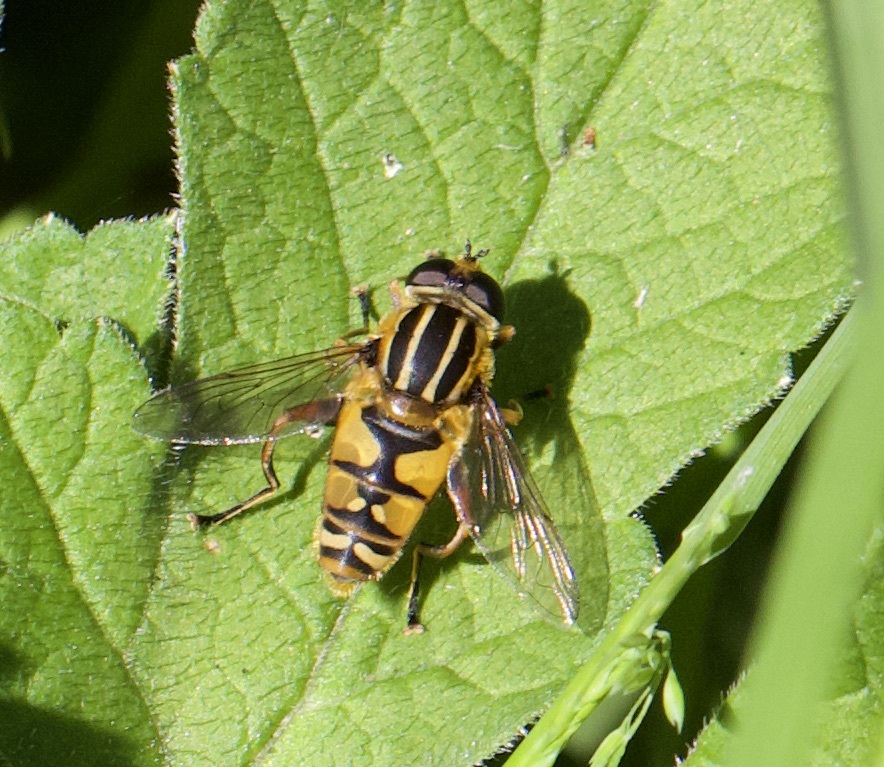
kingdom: Animalia
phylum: Arthropoda
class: Insecta
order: Diptera
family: Syrphidae
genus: Helophilus
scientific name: Helophilus pendulus
